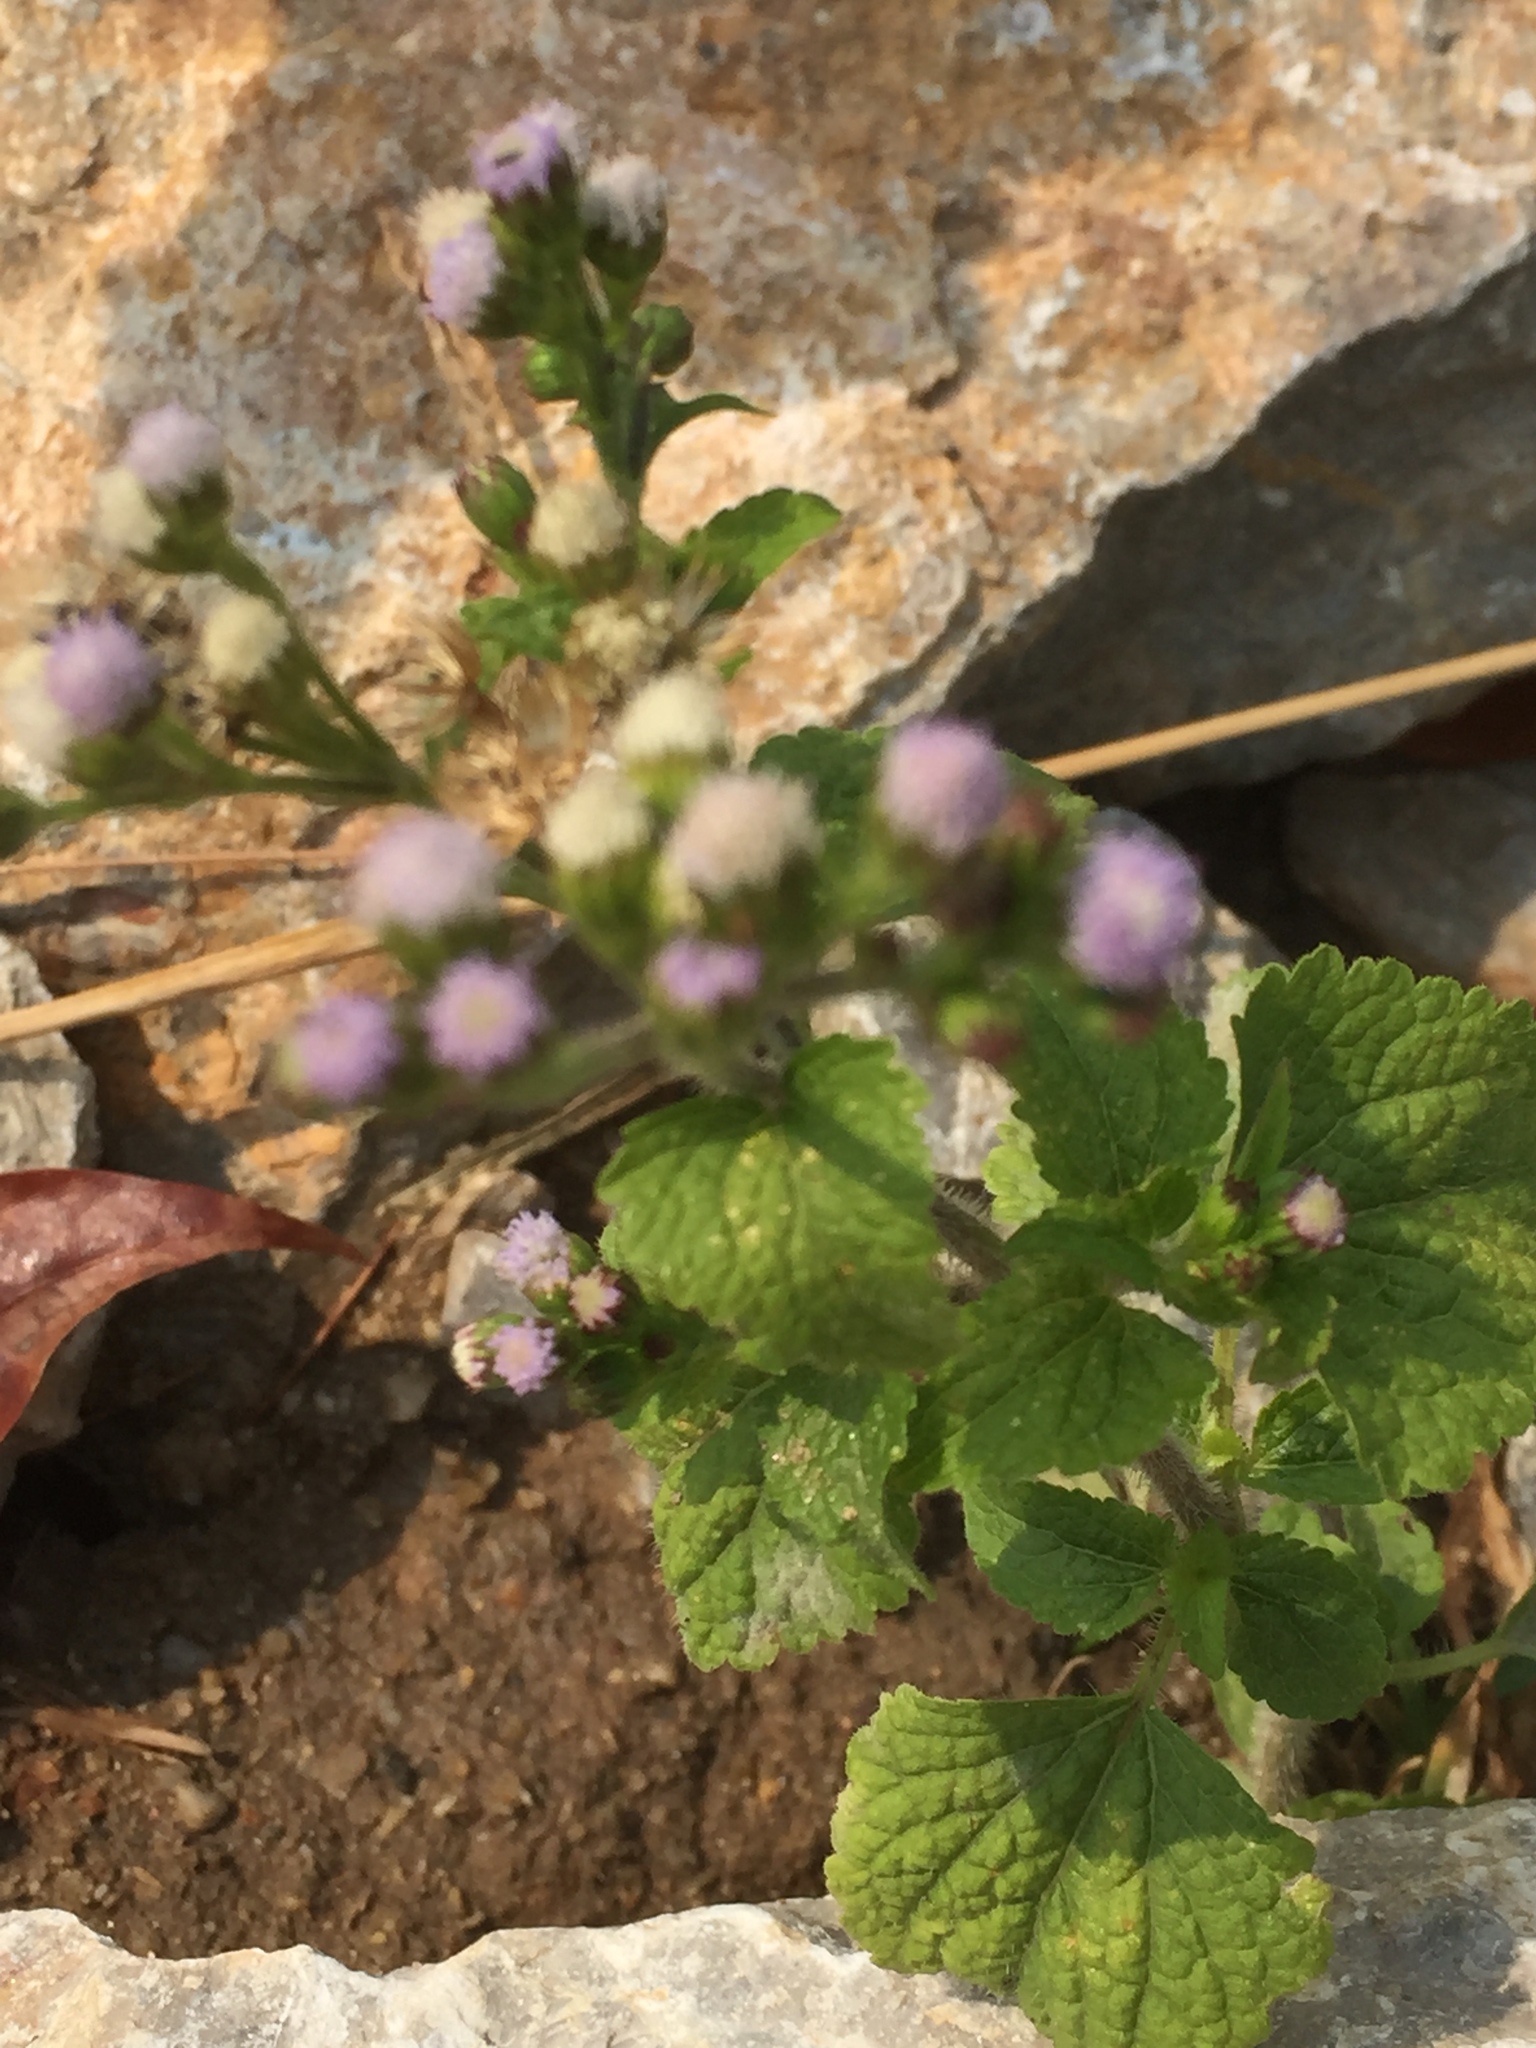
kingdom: Plantae
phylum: Tracheophyta
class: Magnoliopsida
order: Asterales
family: Asteraceae
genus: Ageratum
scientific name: Ageratum conyzoides
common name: Tropical whiteweed
